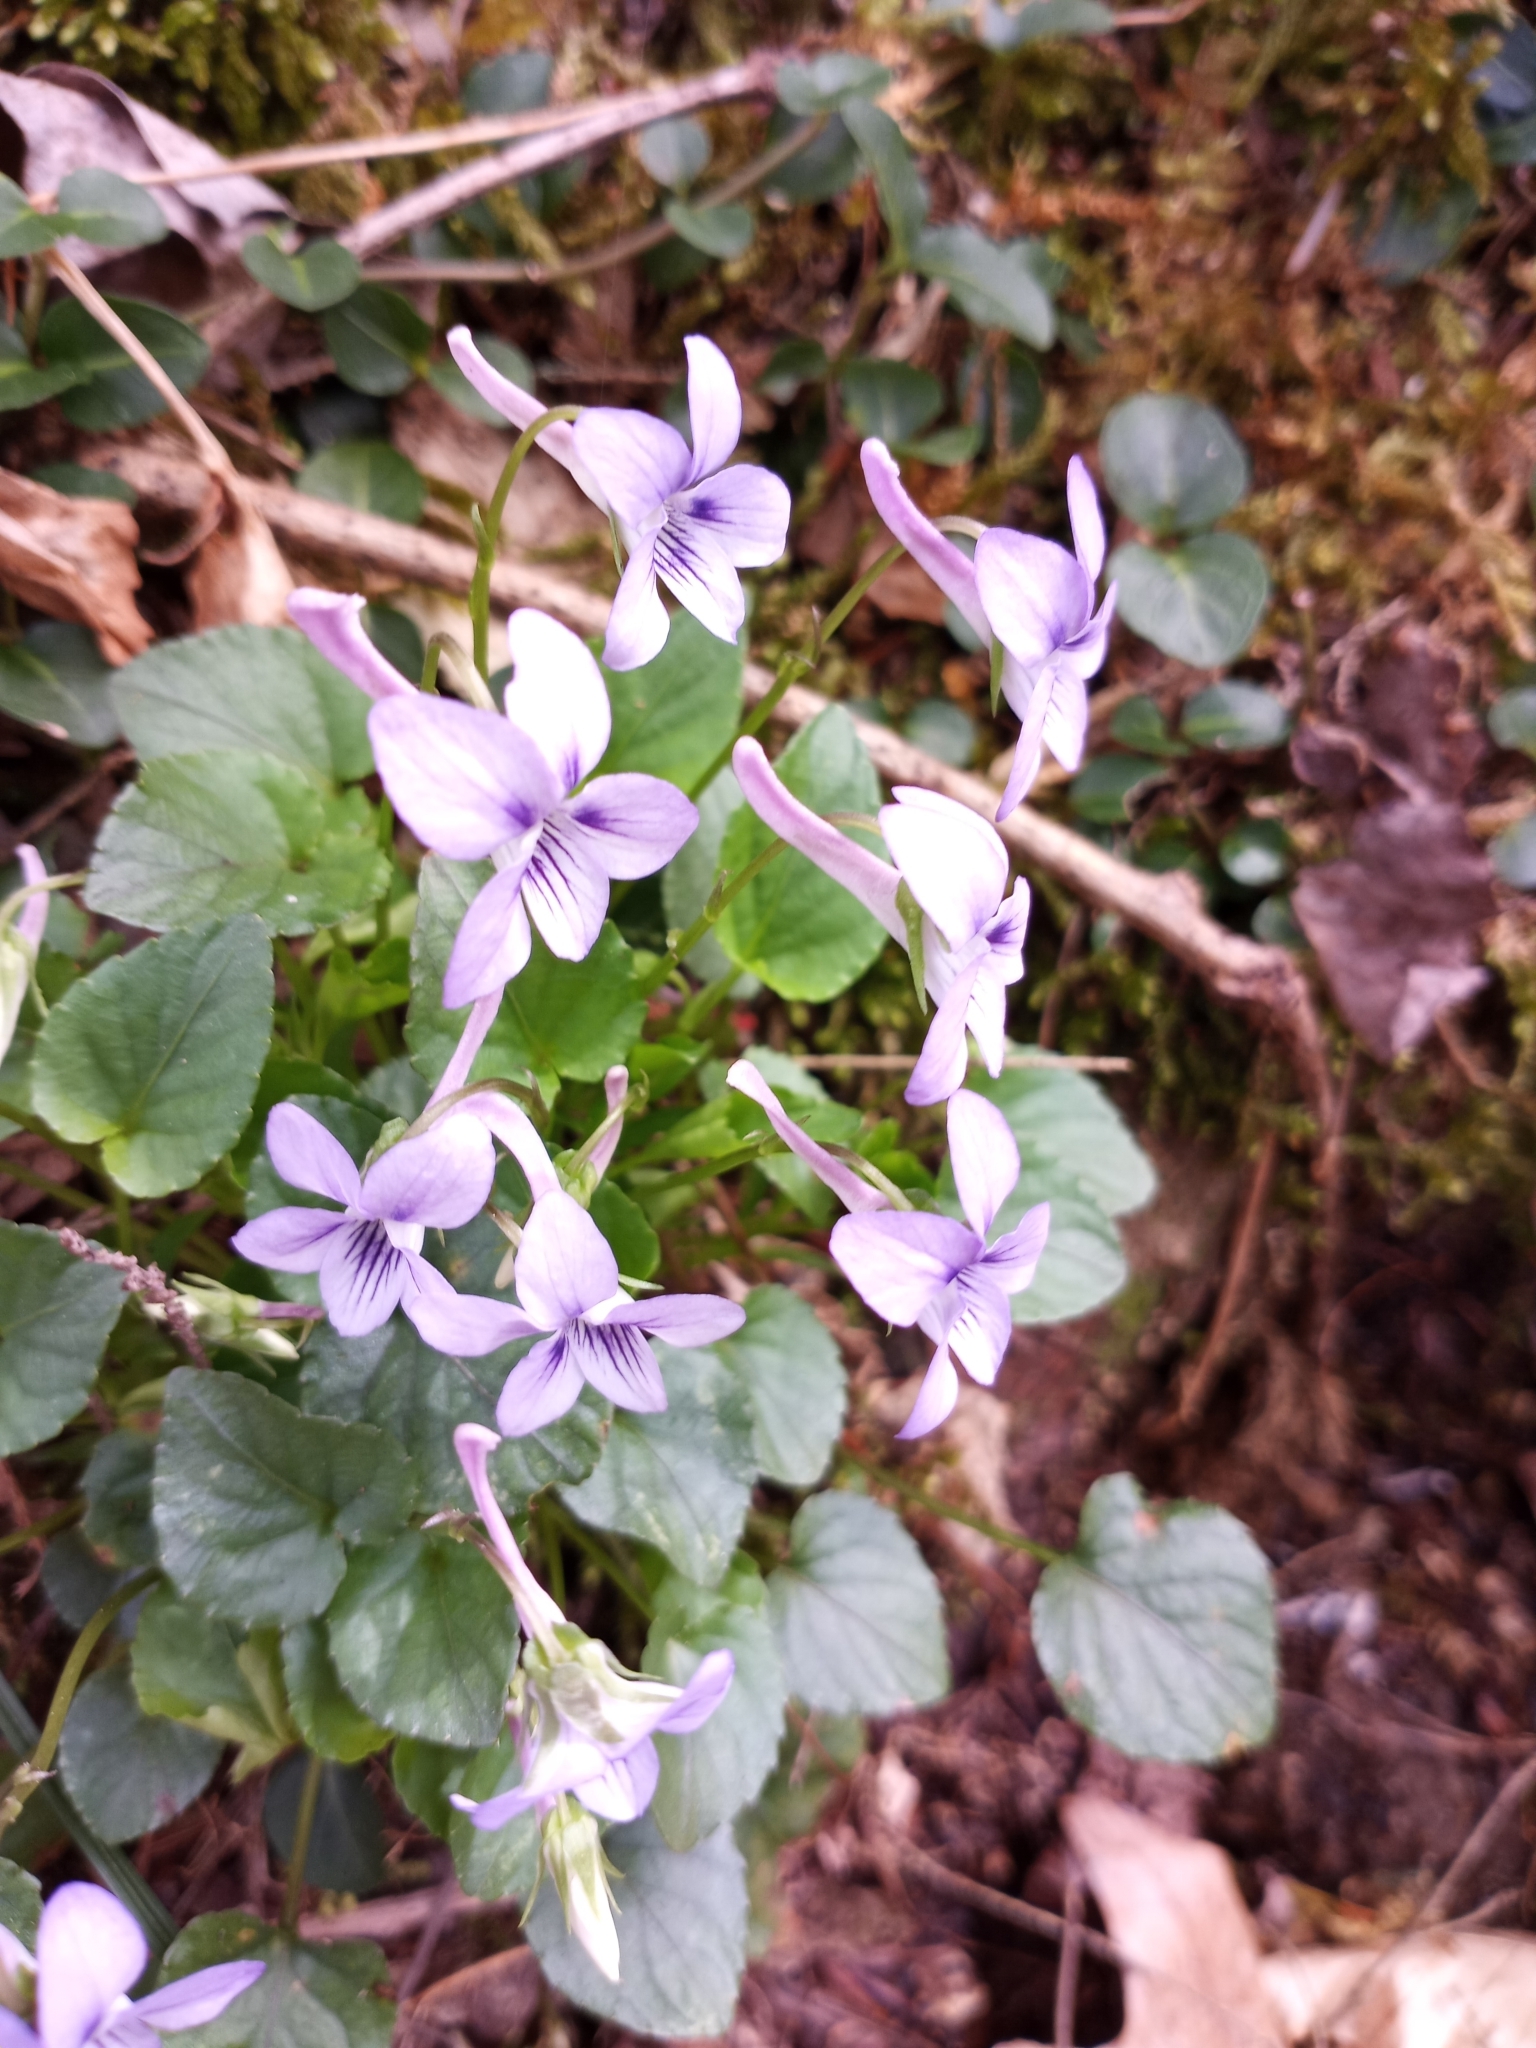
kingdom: Plantae
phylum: Tracheophyta
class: Magnoliopsida
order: Malpighiales
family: Violaceae
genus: Viola
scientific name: Viola rostrata
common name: Long-spur violet
